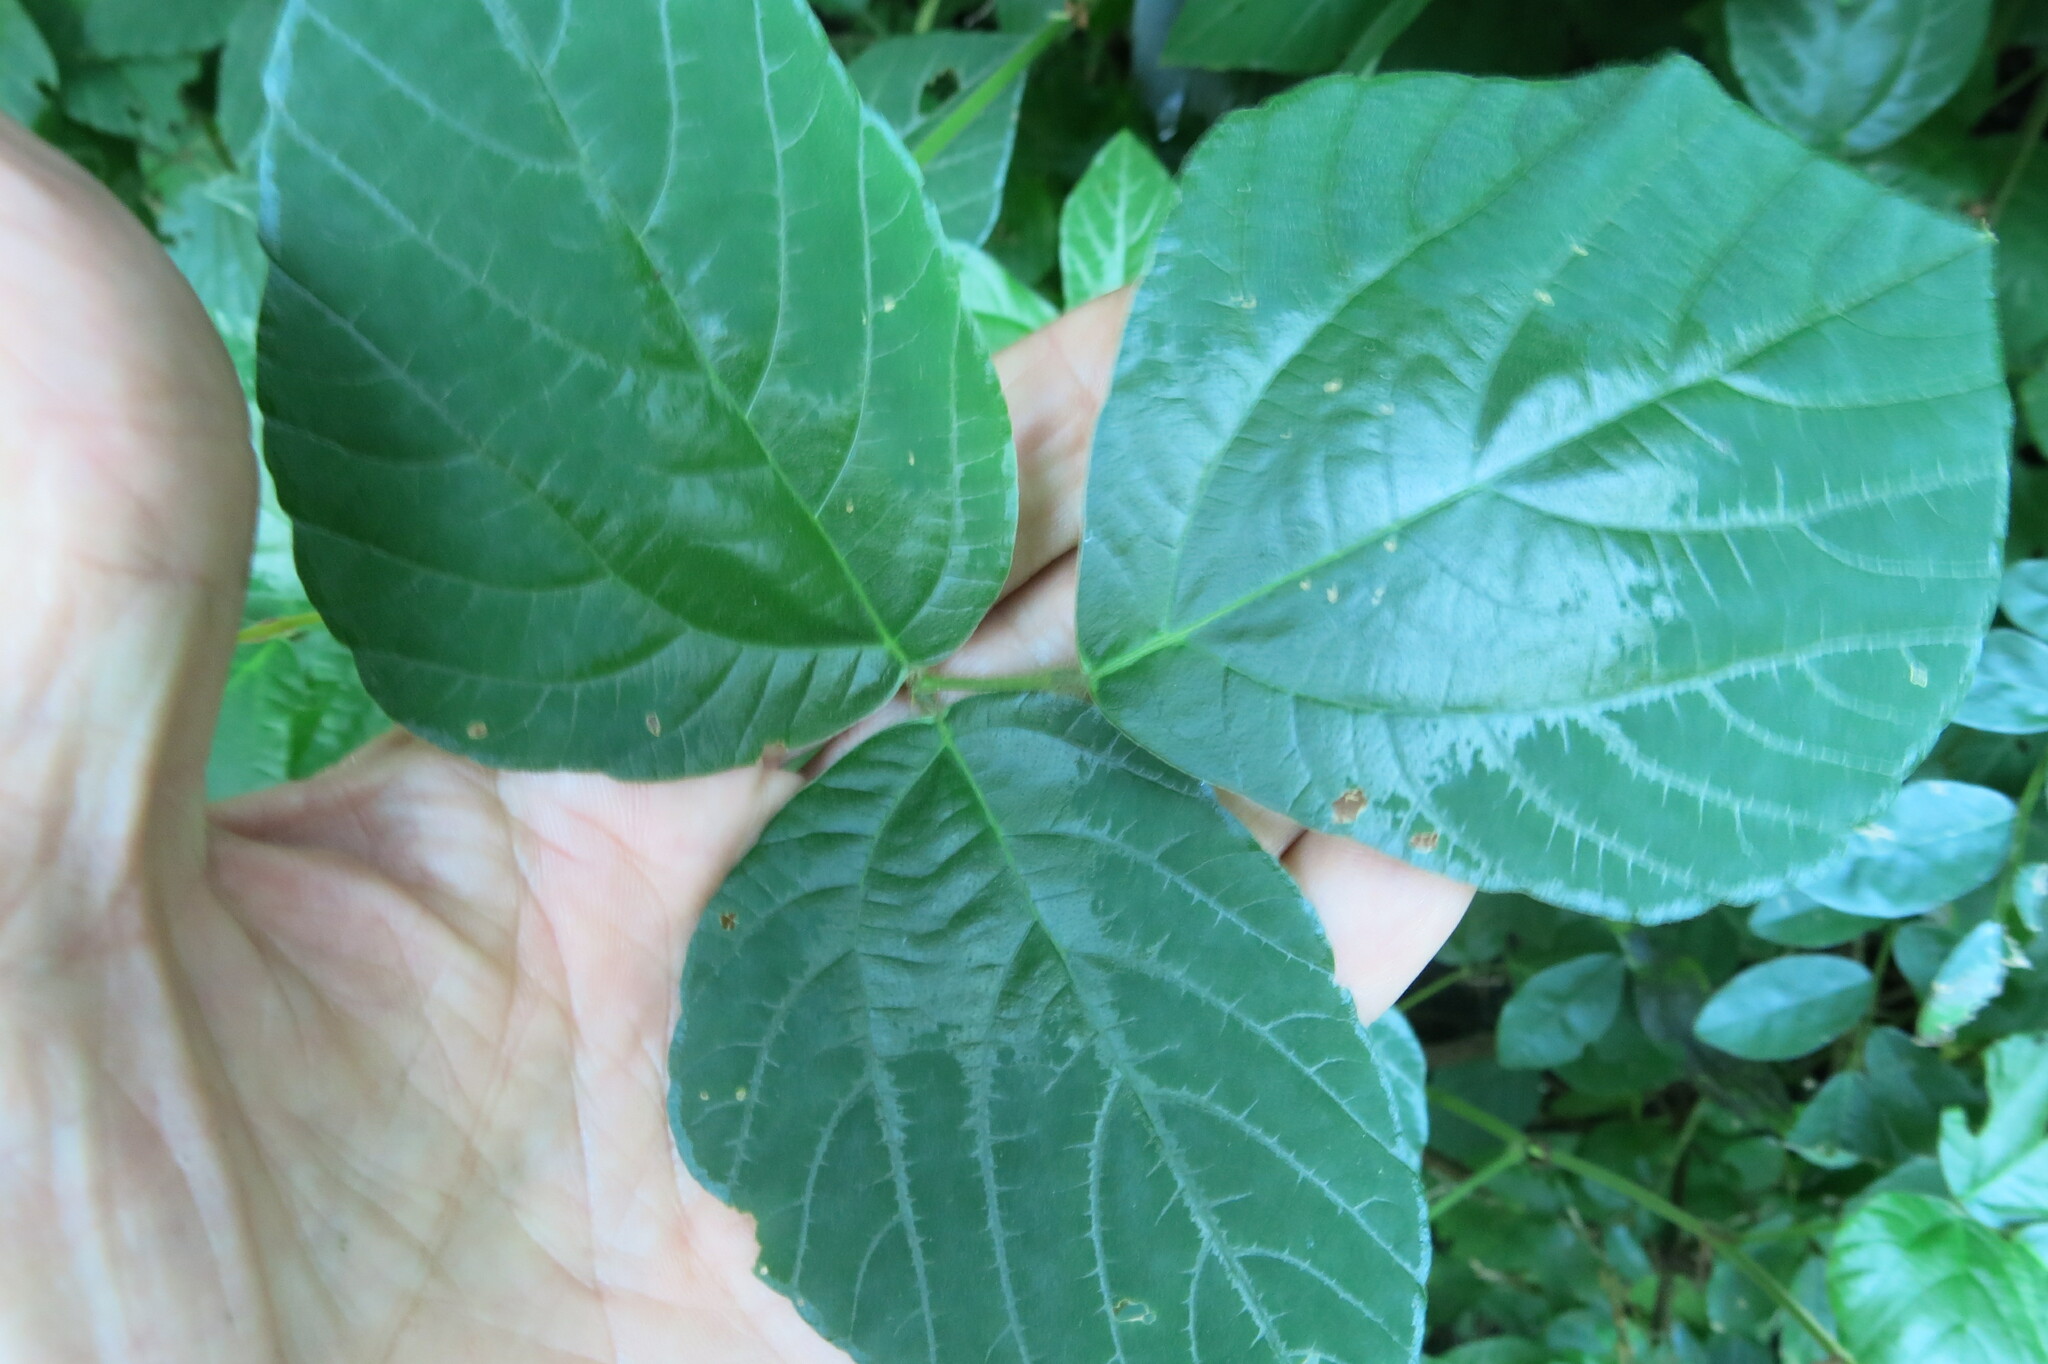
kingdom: Plantae
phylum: Tracheophyta
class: Magnoliopsida
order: Fabales
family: Fabaceae
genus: Hylodesmum
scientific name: Hylodesmum repandum
